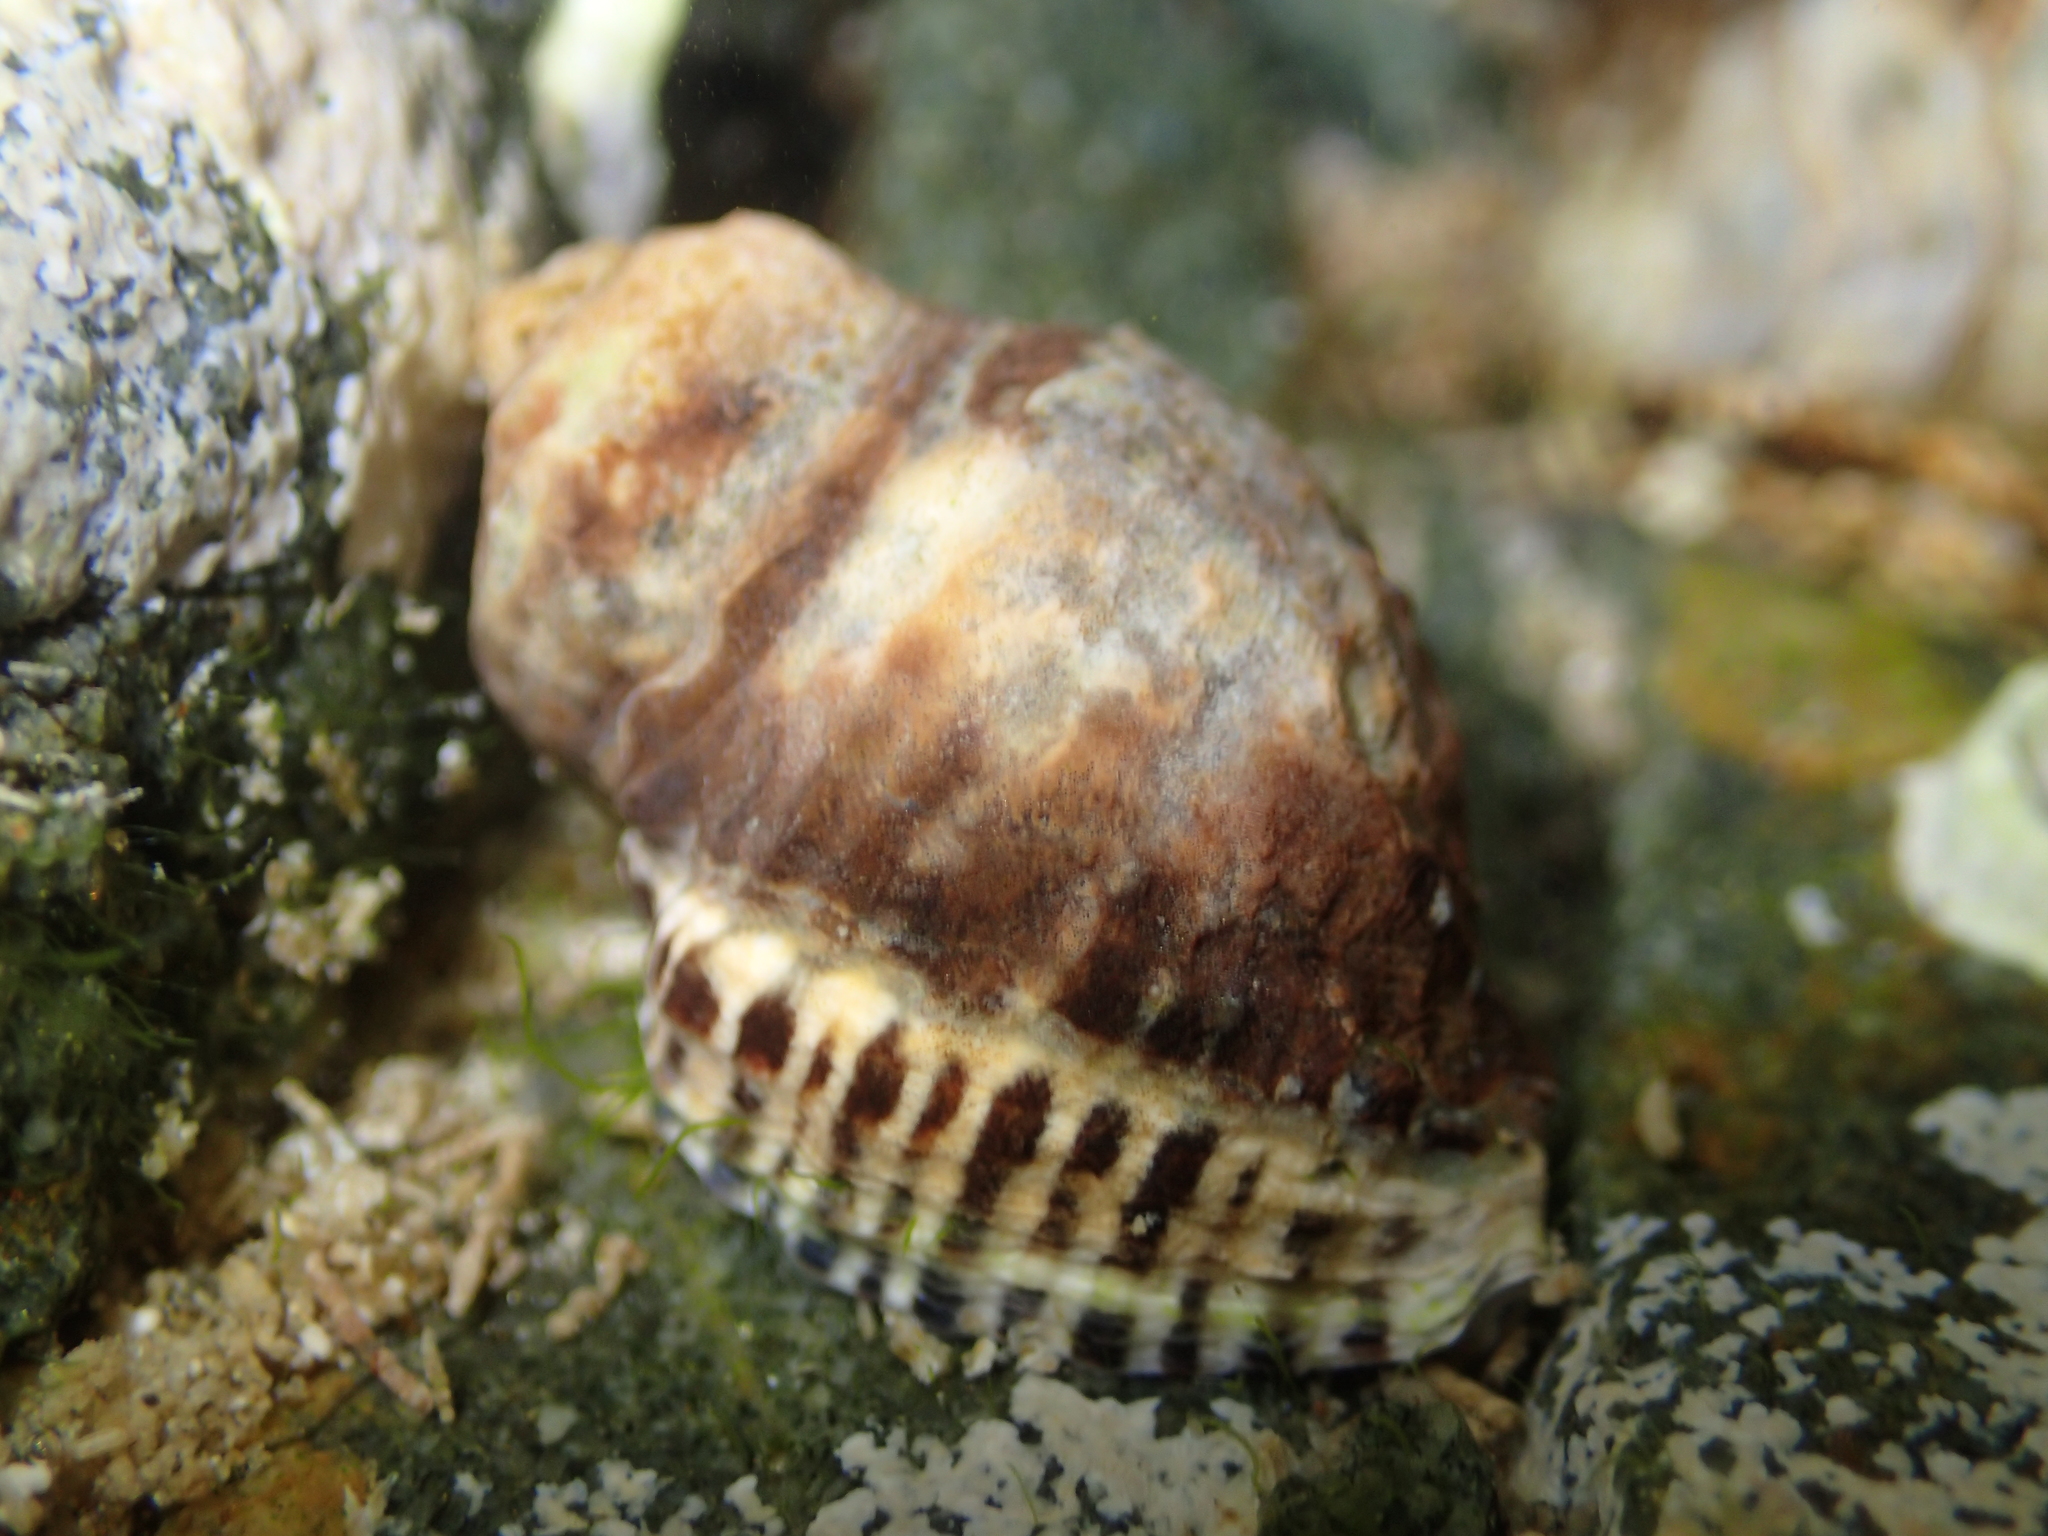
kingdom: Animalia
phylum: Mollusca
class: Gastropoda
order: Neogastropoda
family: Muricidae
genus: Haustrum
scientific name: Haustrum scobina
